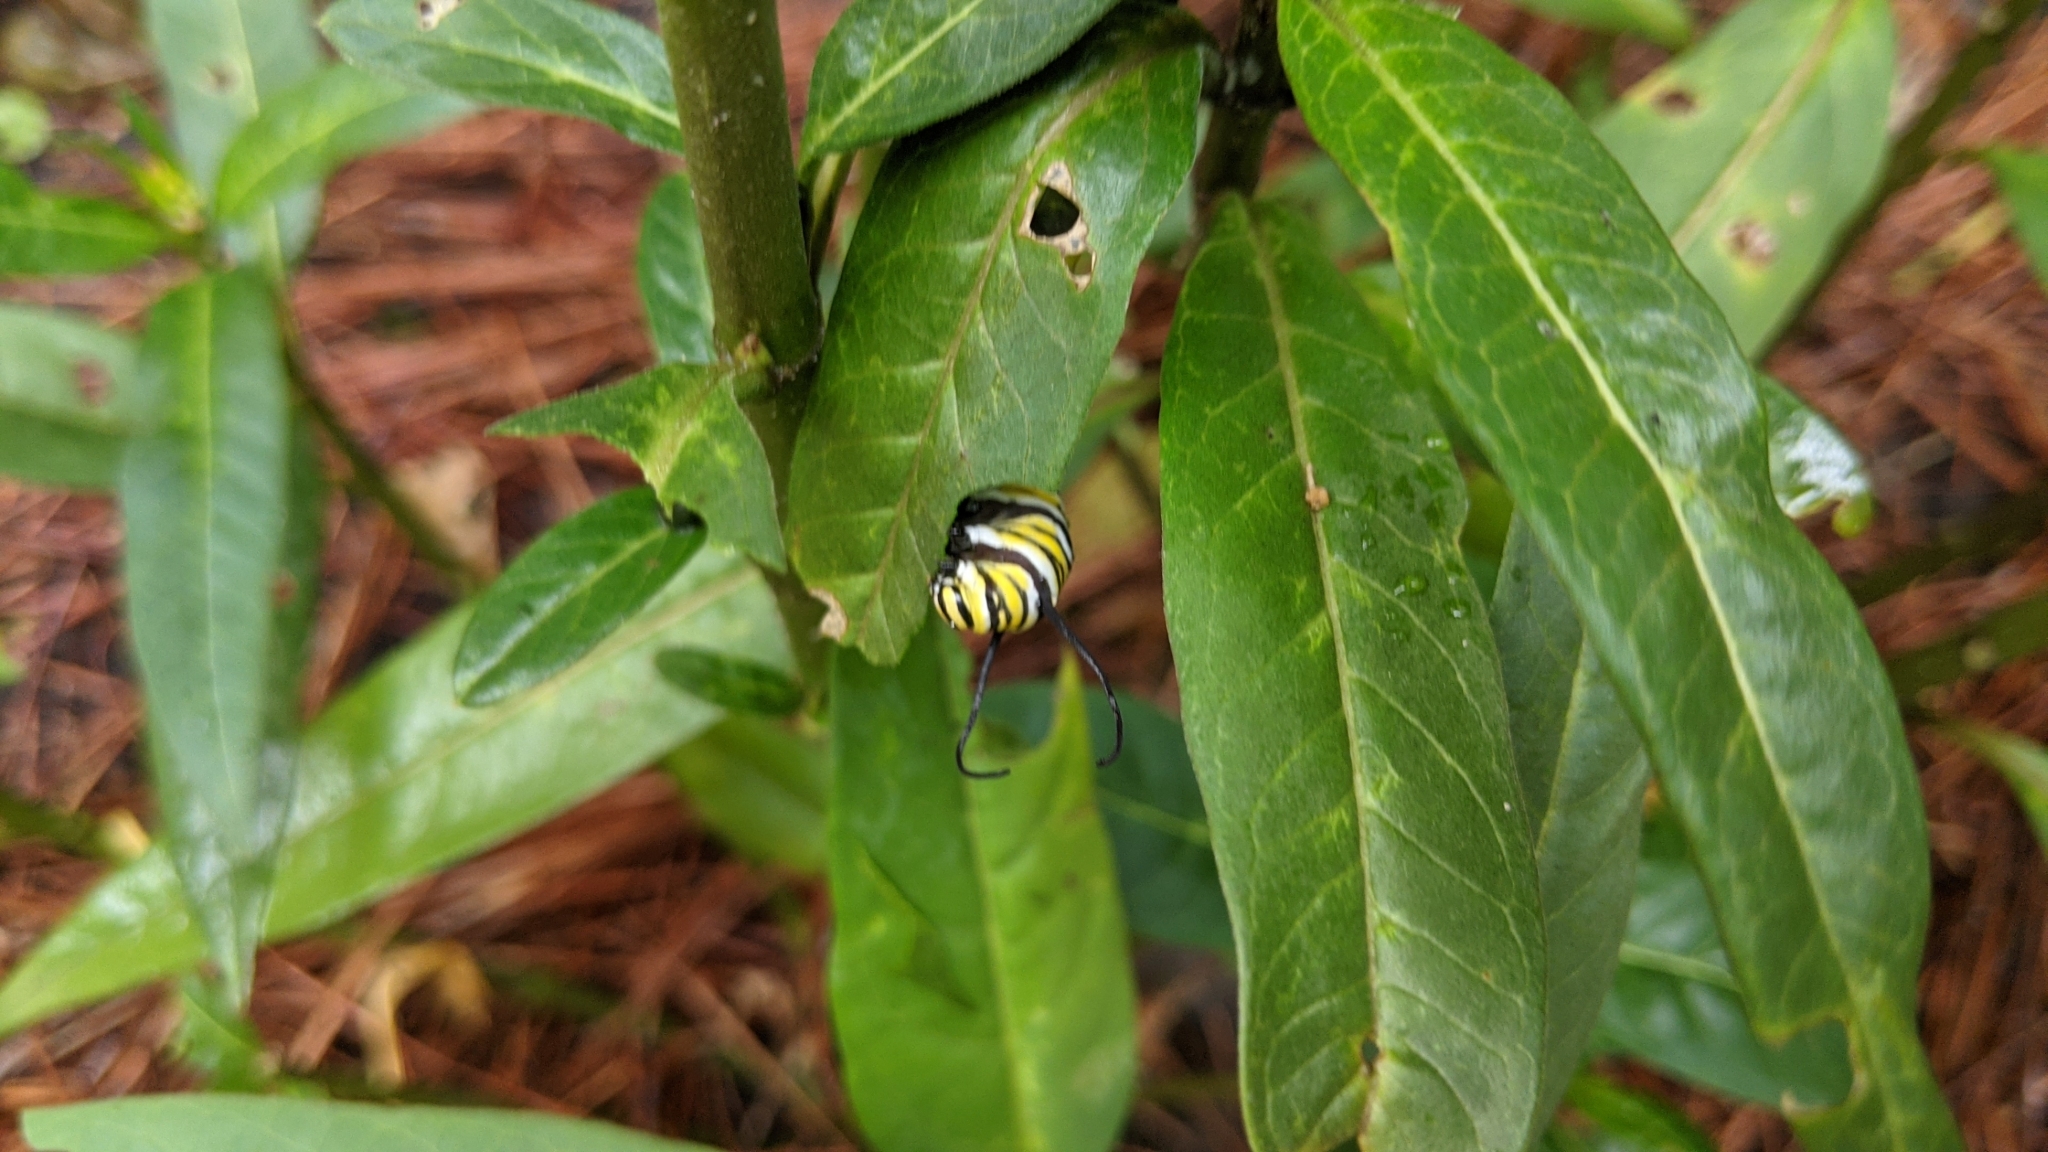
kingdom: Animalia
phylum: Arthropoda
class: Insecta
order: Lepidoptera
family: Nymphalidae
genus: Danaus
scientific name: Danaus plexippus
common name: Monarch
